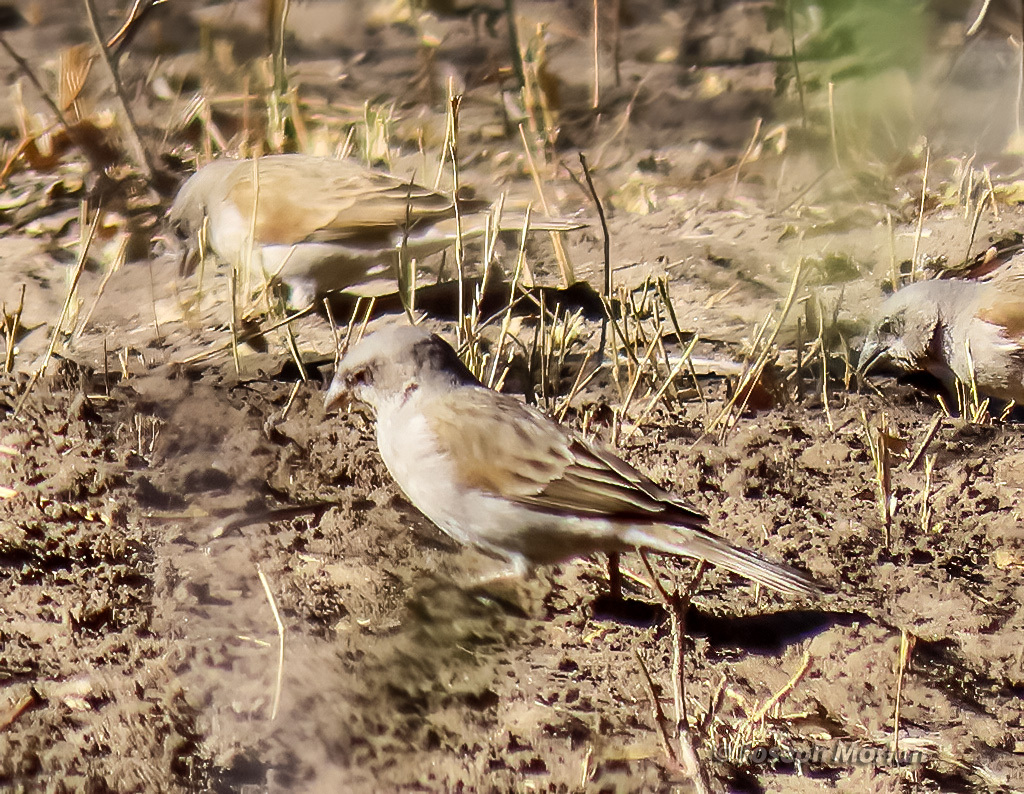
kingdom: Animalia
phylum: Chordata
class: Aves
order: Passeriformes
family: Passeridae
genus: Passer
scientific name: Passer diffusus
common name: Southern grey-headed sparrow
